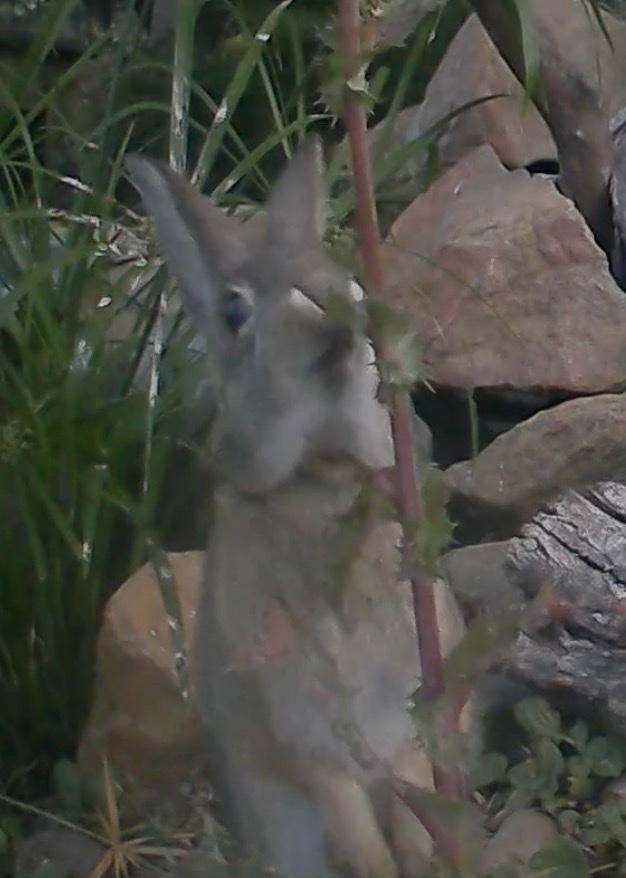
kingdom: Animalia
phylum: Chordata
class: Mammalia
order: Lagomorpha
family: Leporidae
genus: Sylvilagus
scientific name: Sylvilagus audubonii
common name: Desert cottontail
